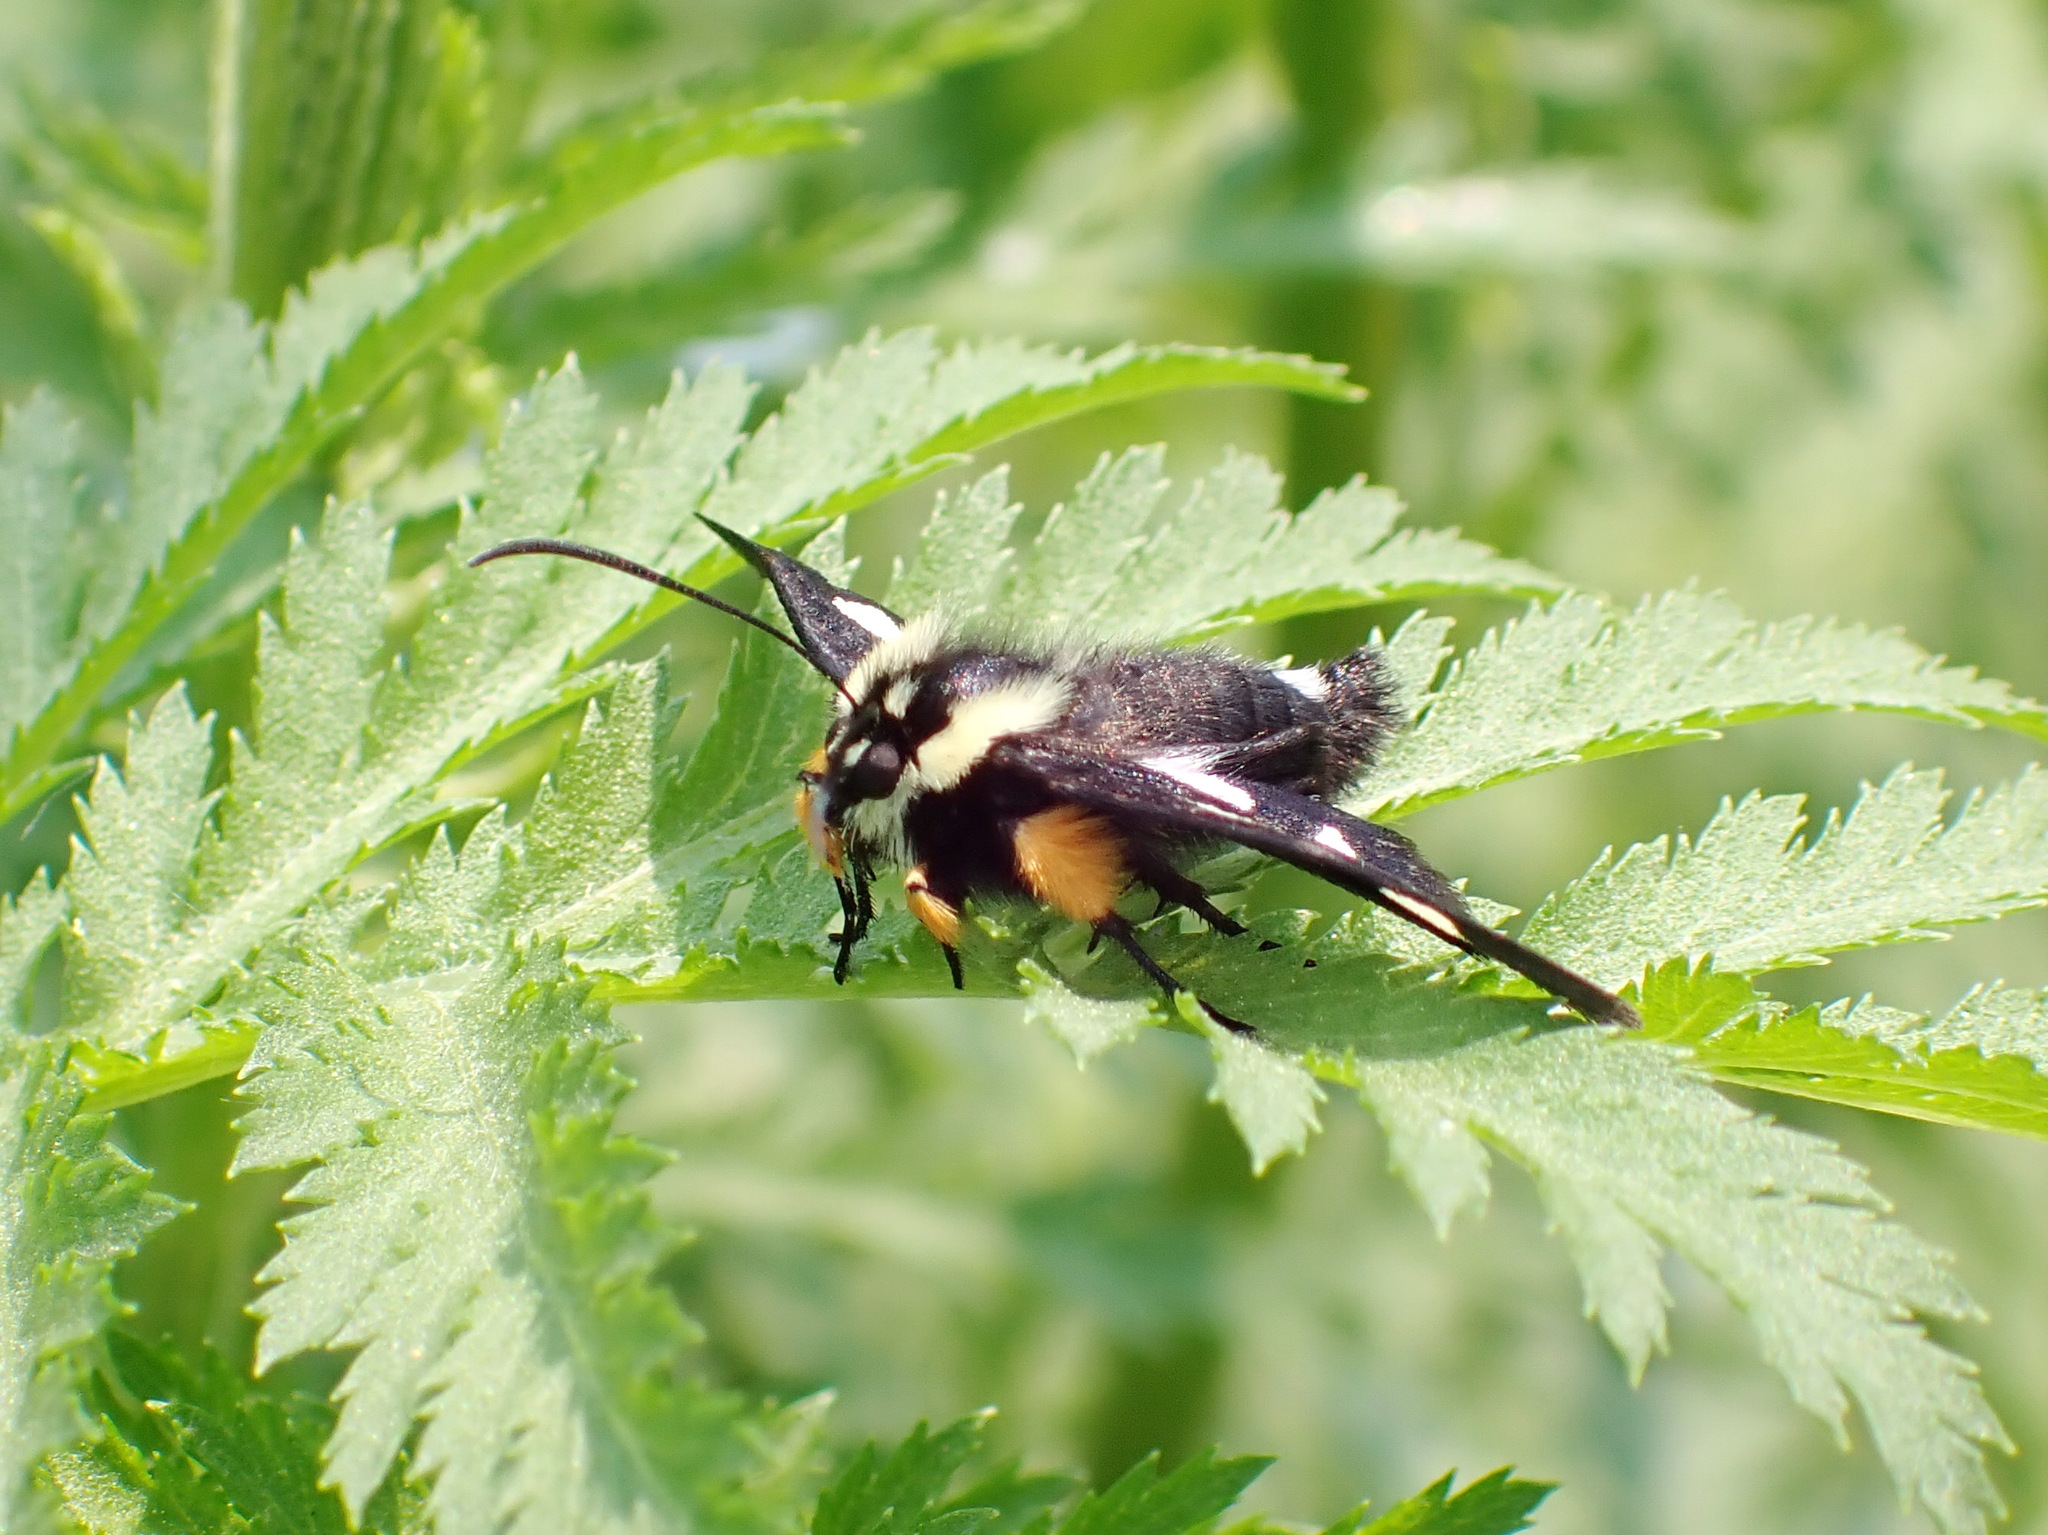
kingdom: Animalia
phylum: Arthropoda
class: Insecta
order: Lepidoptera
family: Noctuidae
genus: Alypia
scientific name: Alypia octomaculata
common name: Eight-spotted forester
